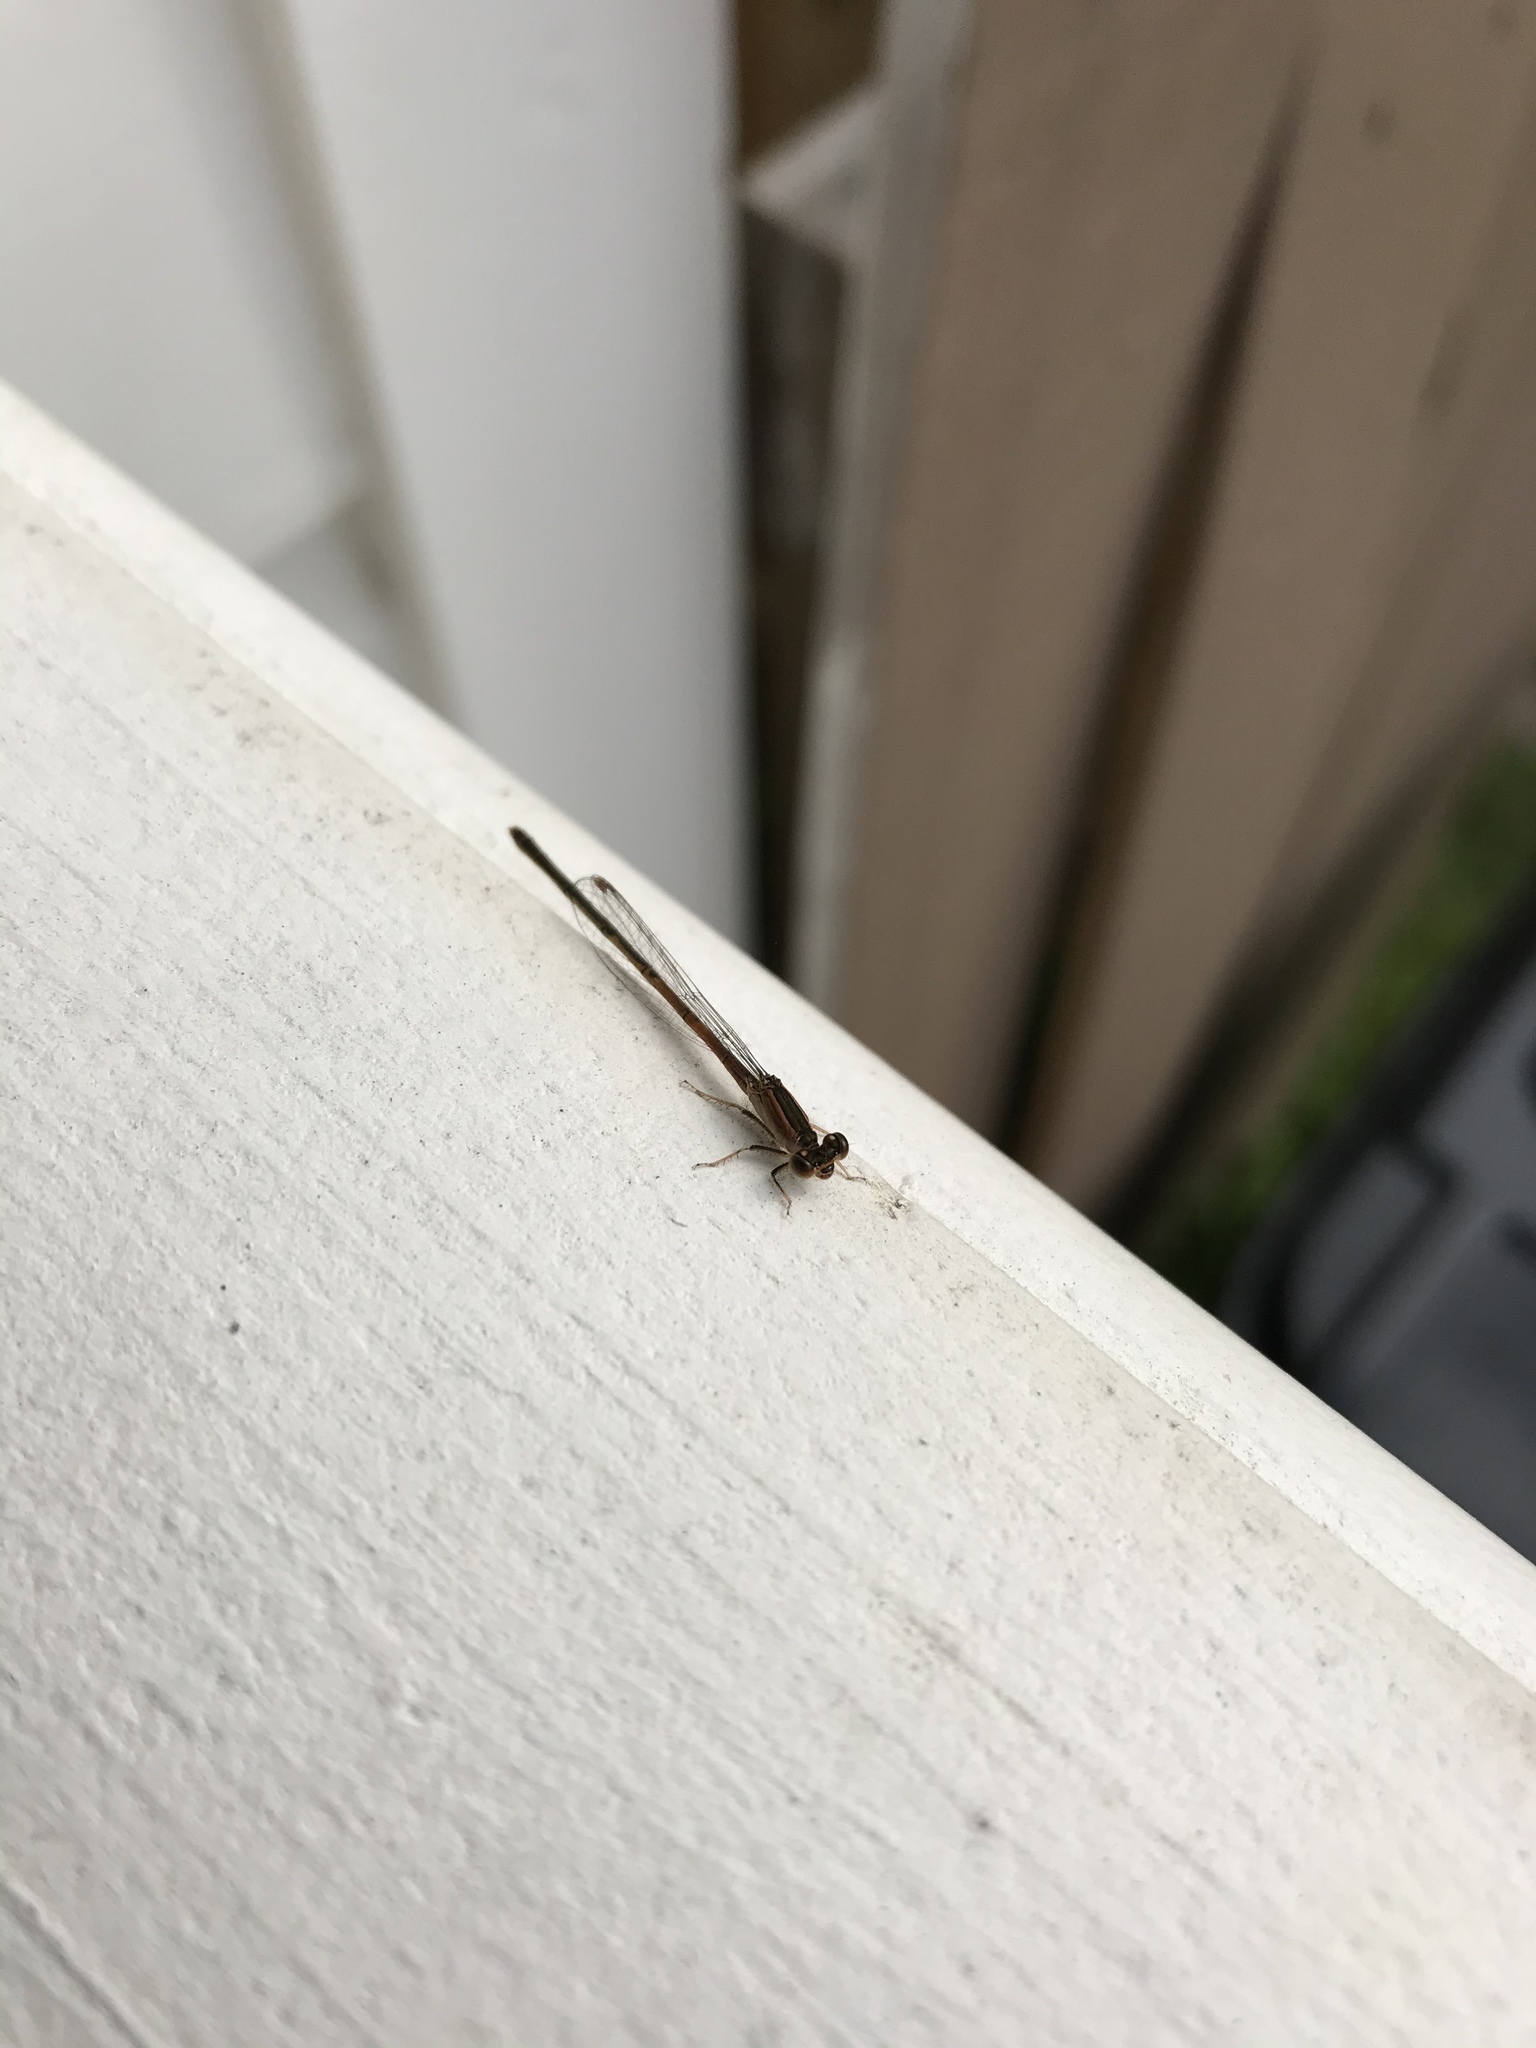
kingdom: Animalia
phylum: Arthropoda
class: Insecta
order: Odonata
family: Coenagrionidae
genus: Ischnura
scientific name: Ischnura ramburii
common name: Rambur's forktail
